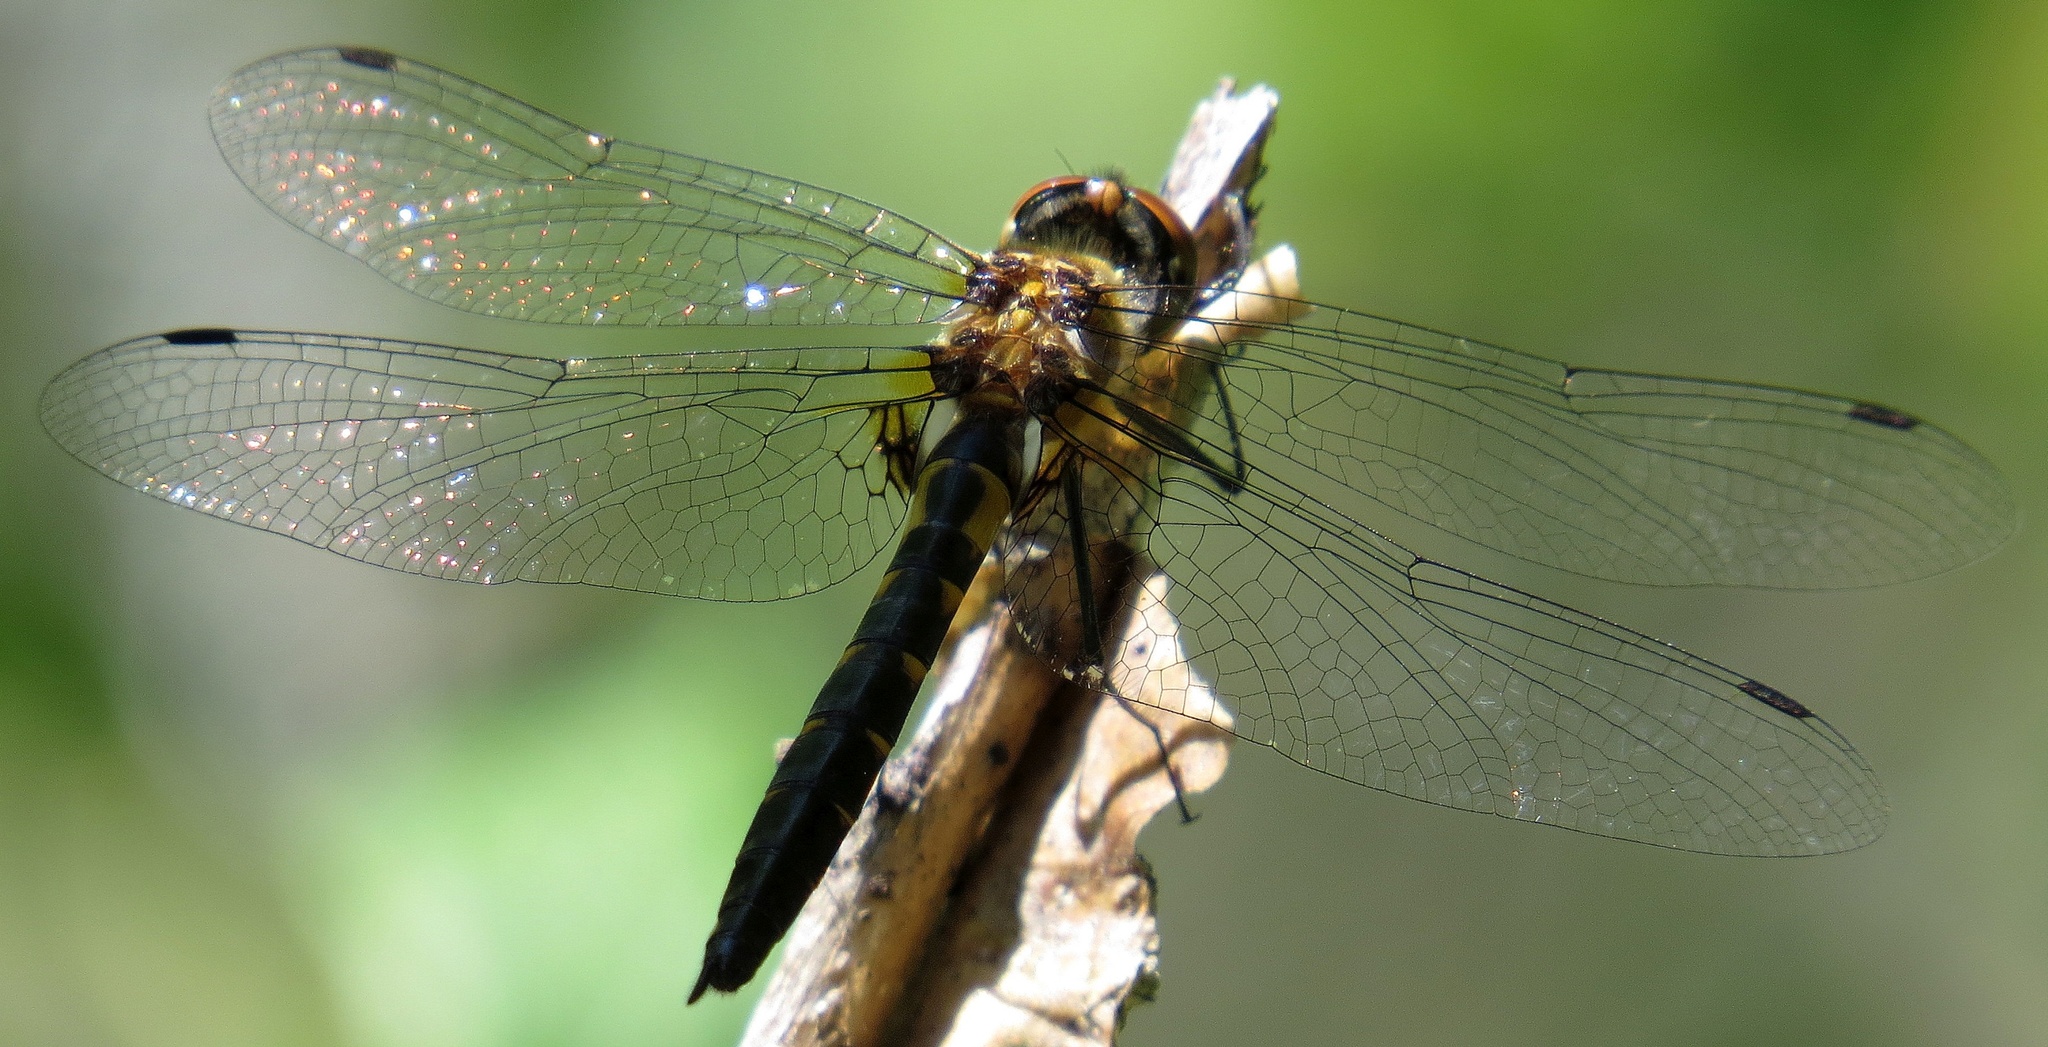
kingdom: Animalia
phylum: Arthropoda
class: Insecta
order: Odonata
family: Corduliidae
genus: Dorocordulia
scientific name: Dorocordulia lepida
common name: Petite emerald
